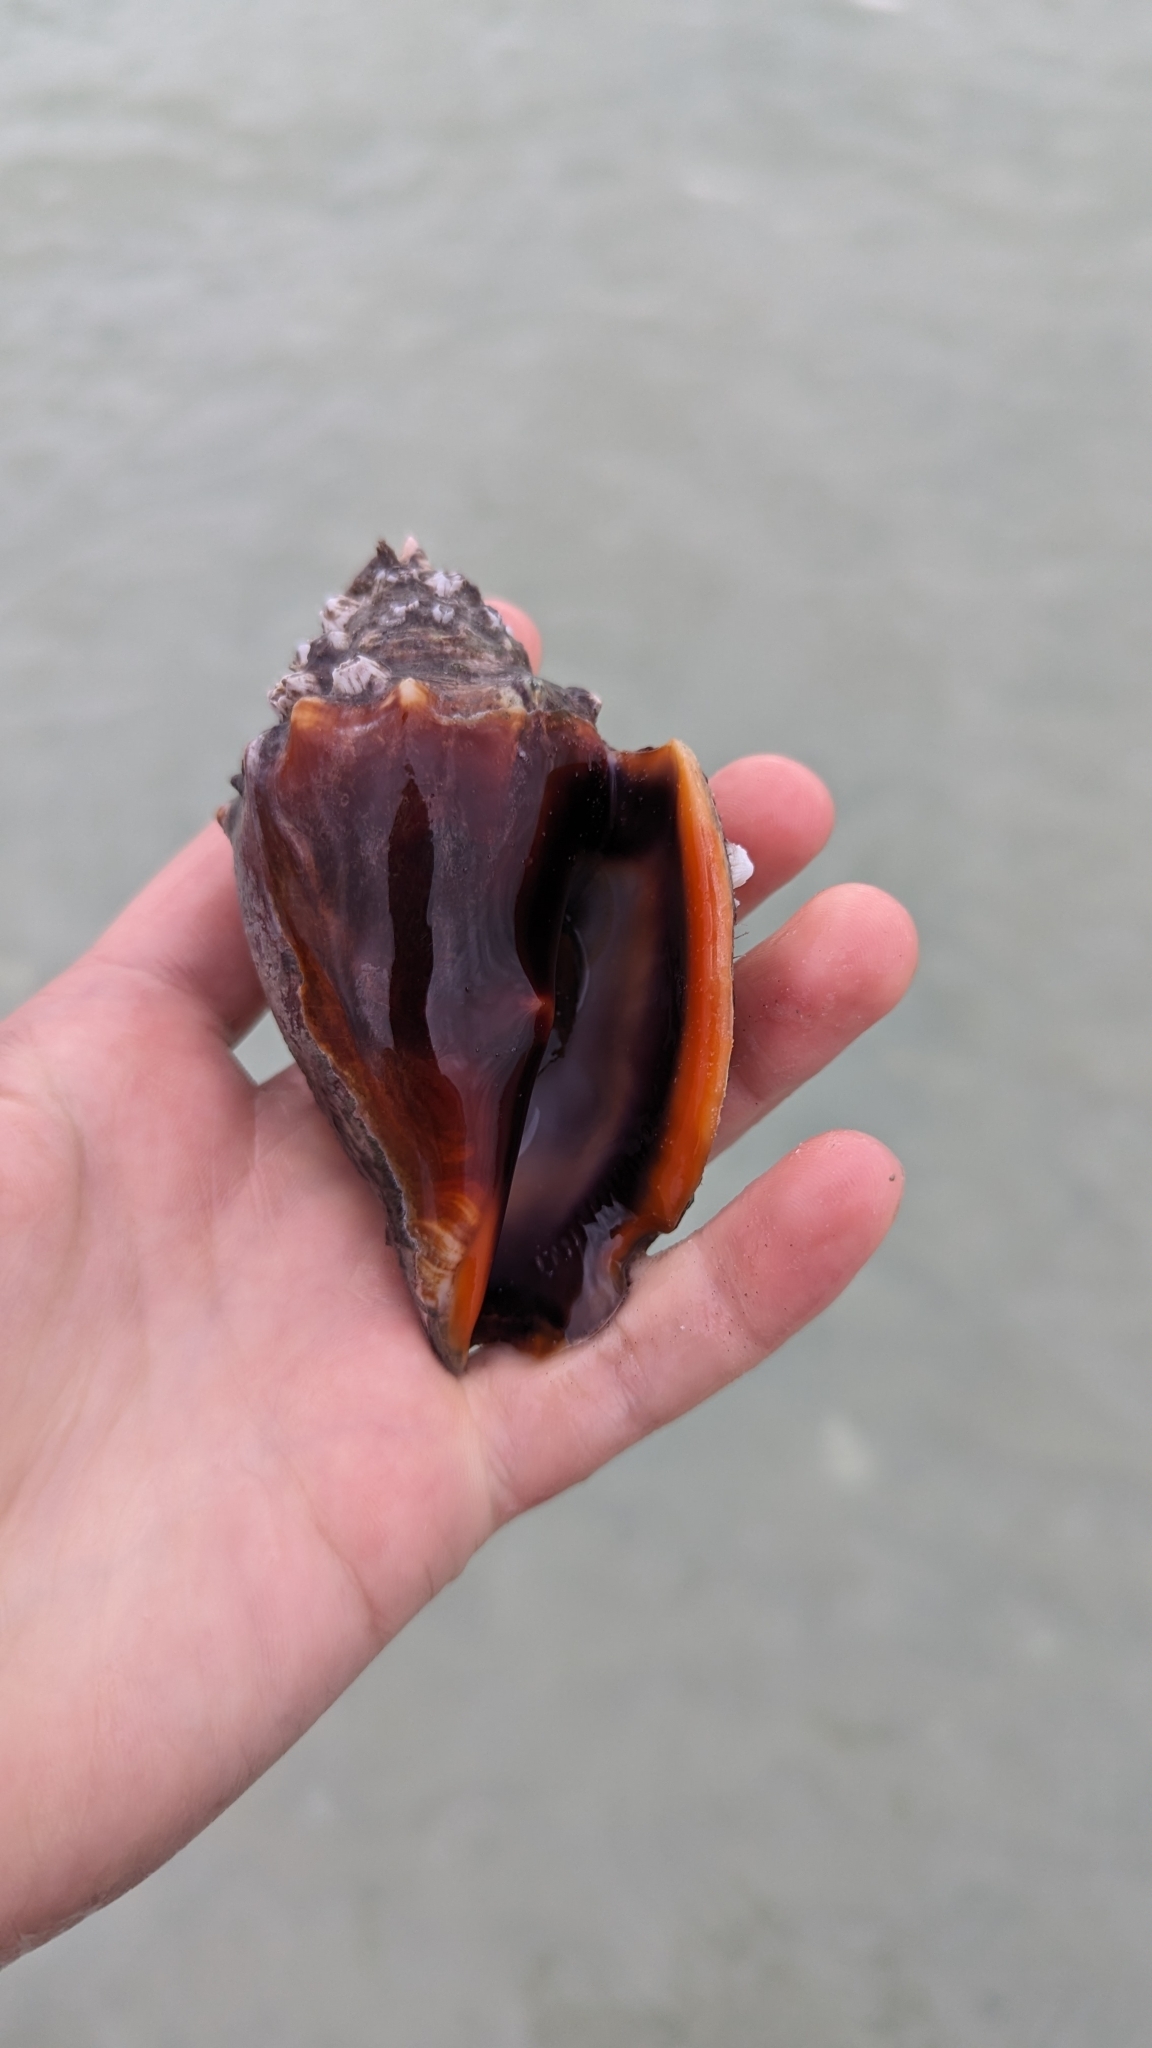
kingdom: Animalia
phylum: Mollusca
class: Gastropoda
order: Littorinimorpha
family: Strombidae
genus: Strombus
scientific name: Strombus alatus
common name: Florida fighting conch
